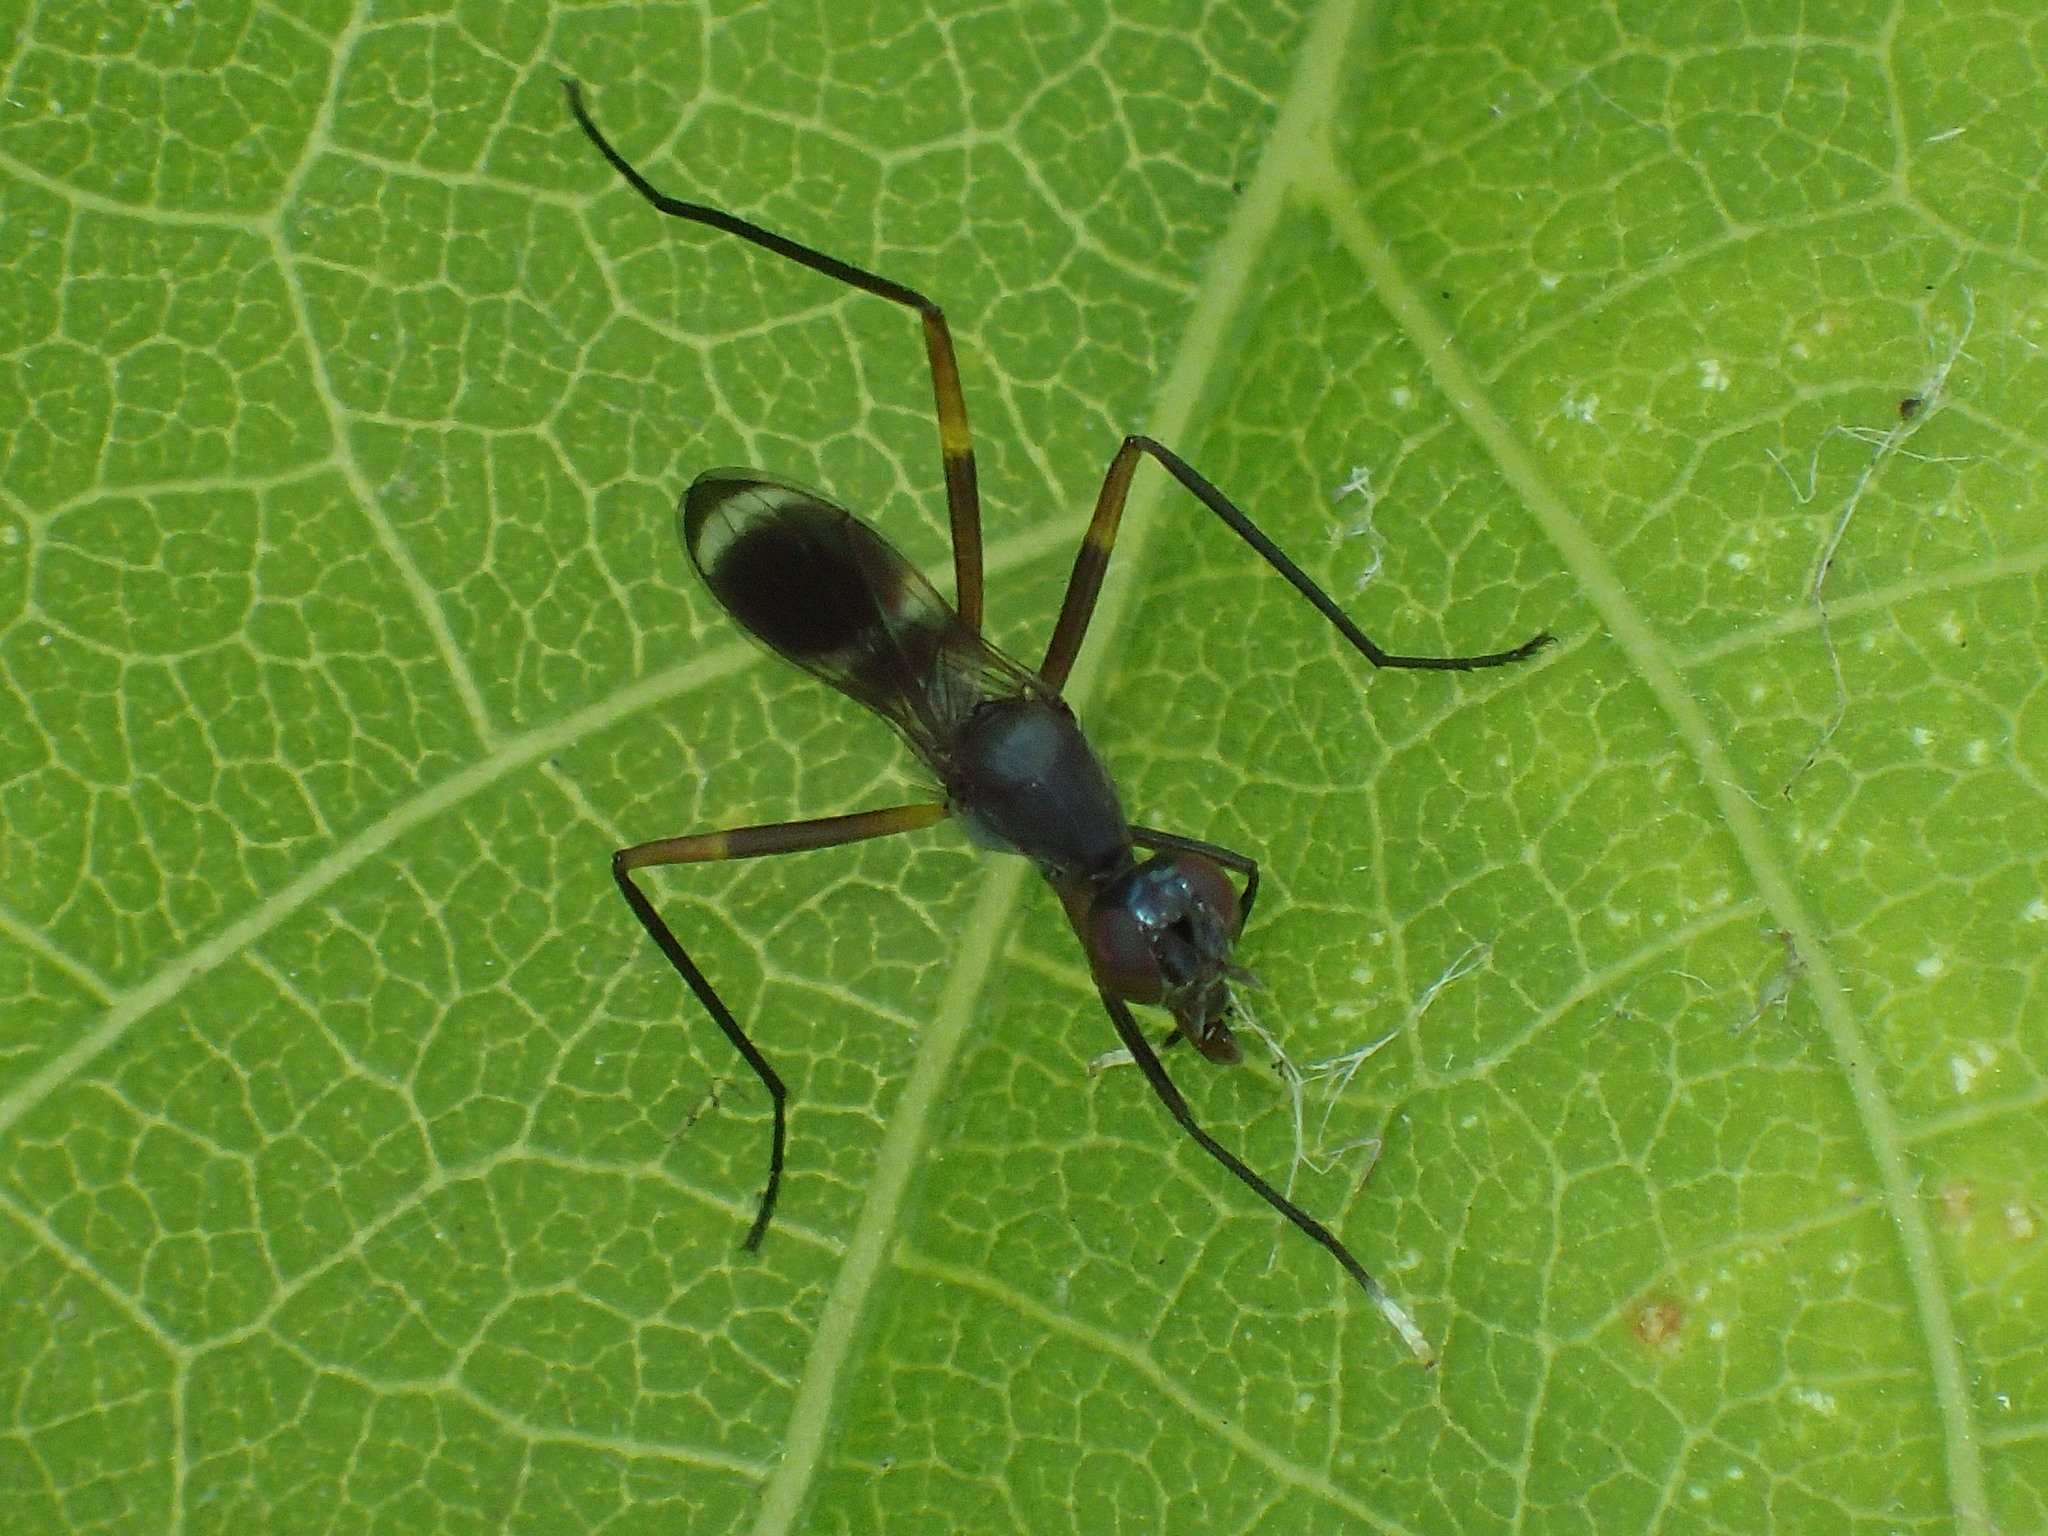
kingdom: Animalia
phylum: Arthropoda
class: Insecta
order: Diptera
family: Micropezidae
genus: Taeniaptera
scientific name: Taeniaptera trivittata
